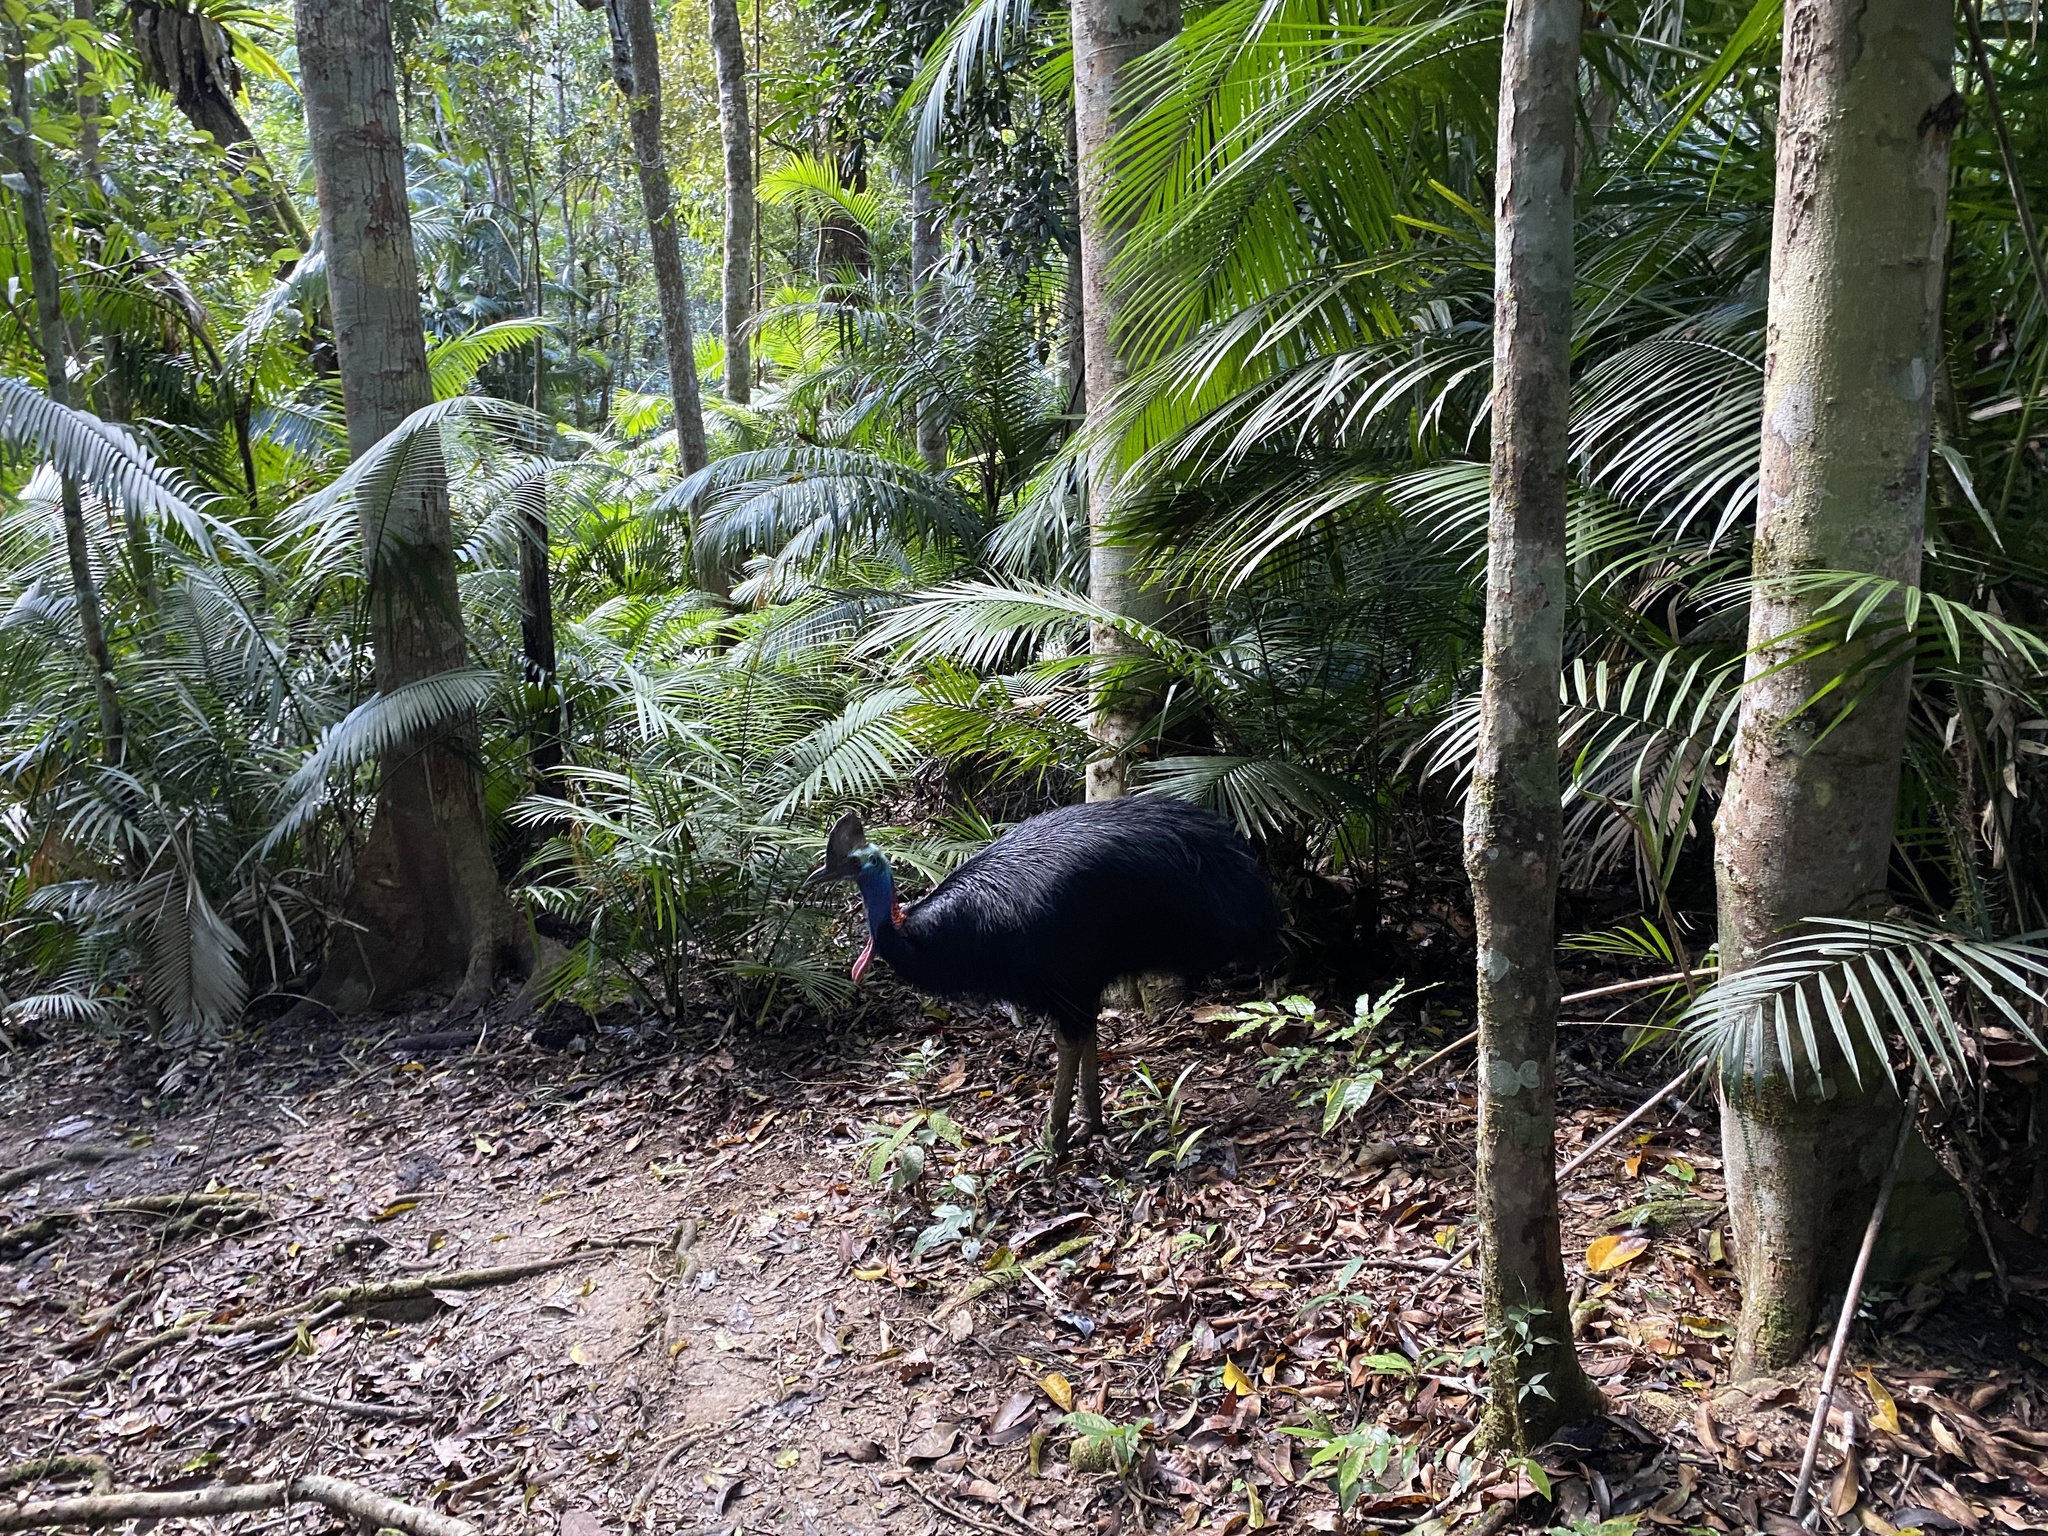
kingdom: Animalia
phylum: Chordata
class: Aves
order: Casuariiformes
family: Casuariidae
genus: Casuarius
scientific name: Casuarius casuarius
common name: Southern cassowary
